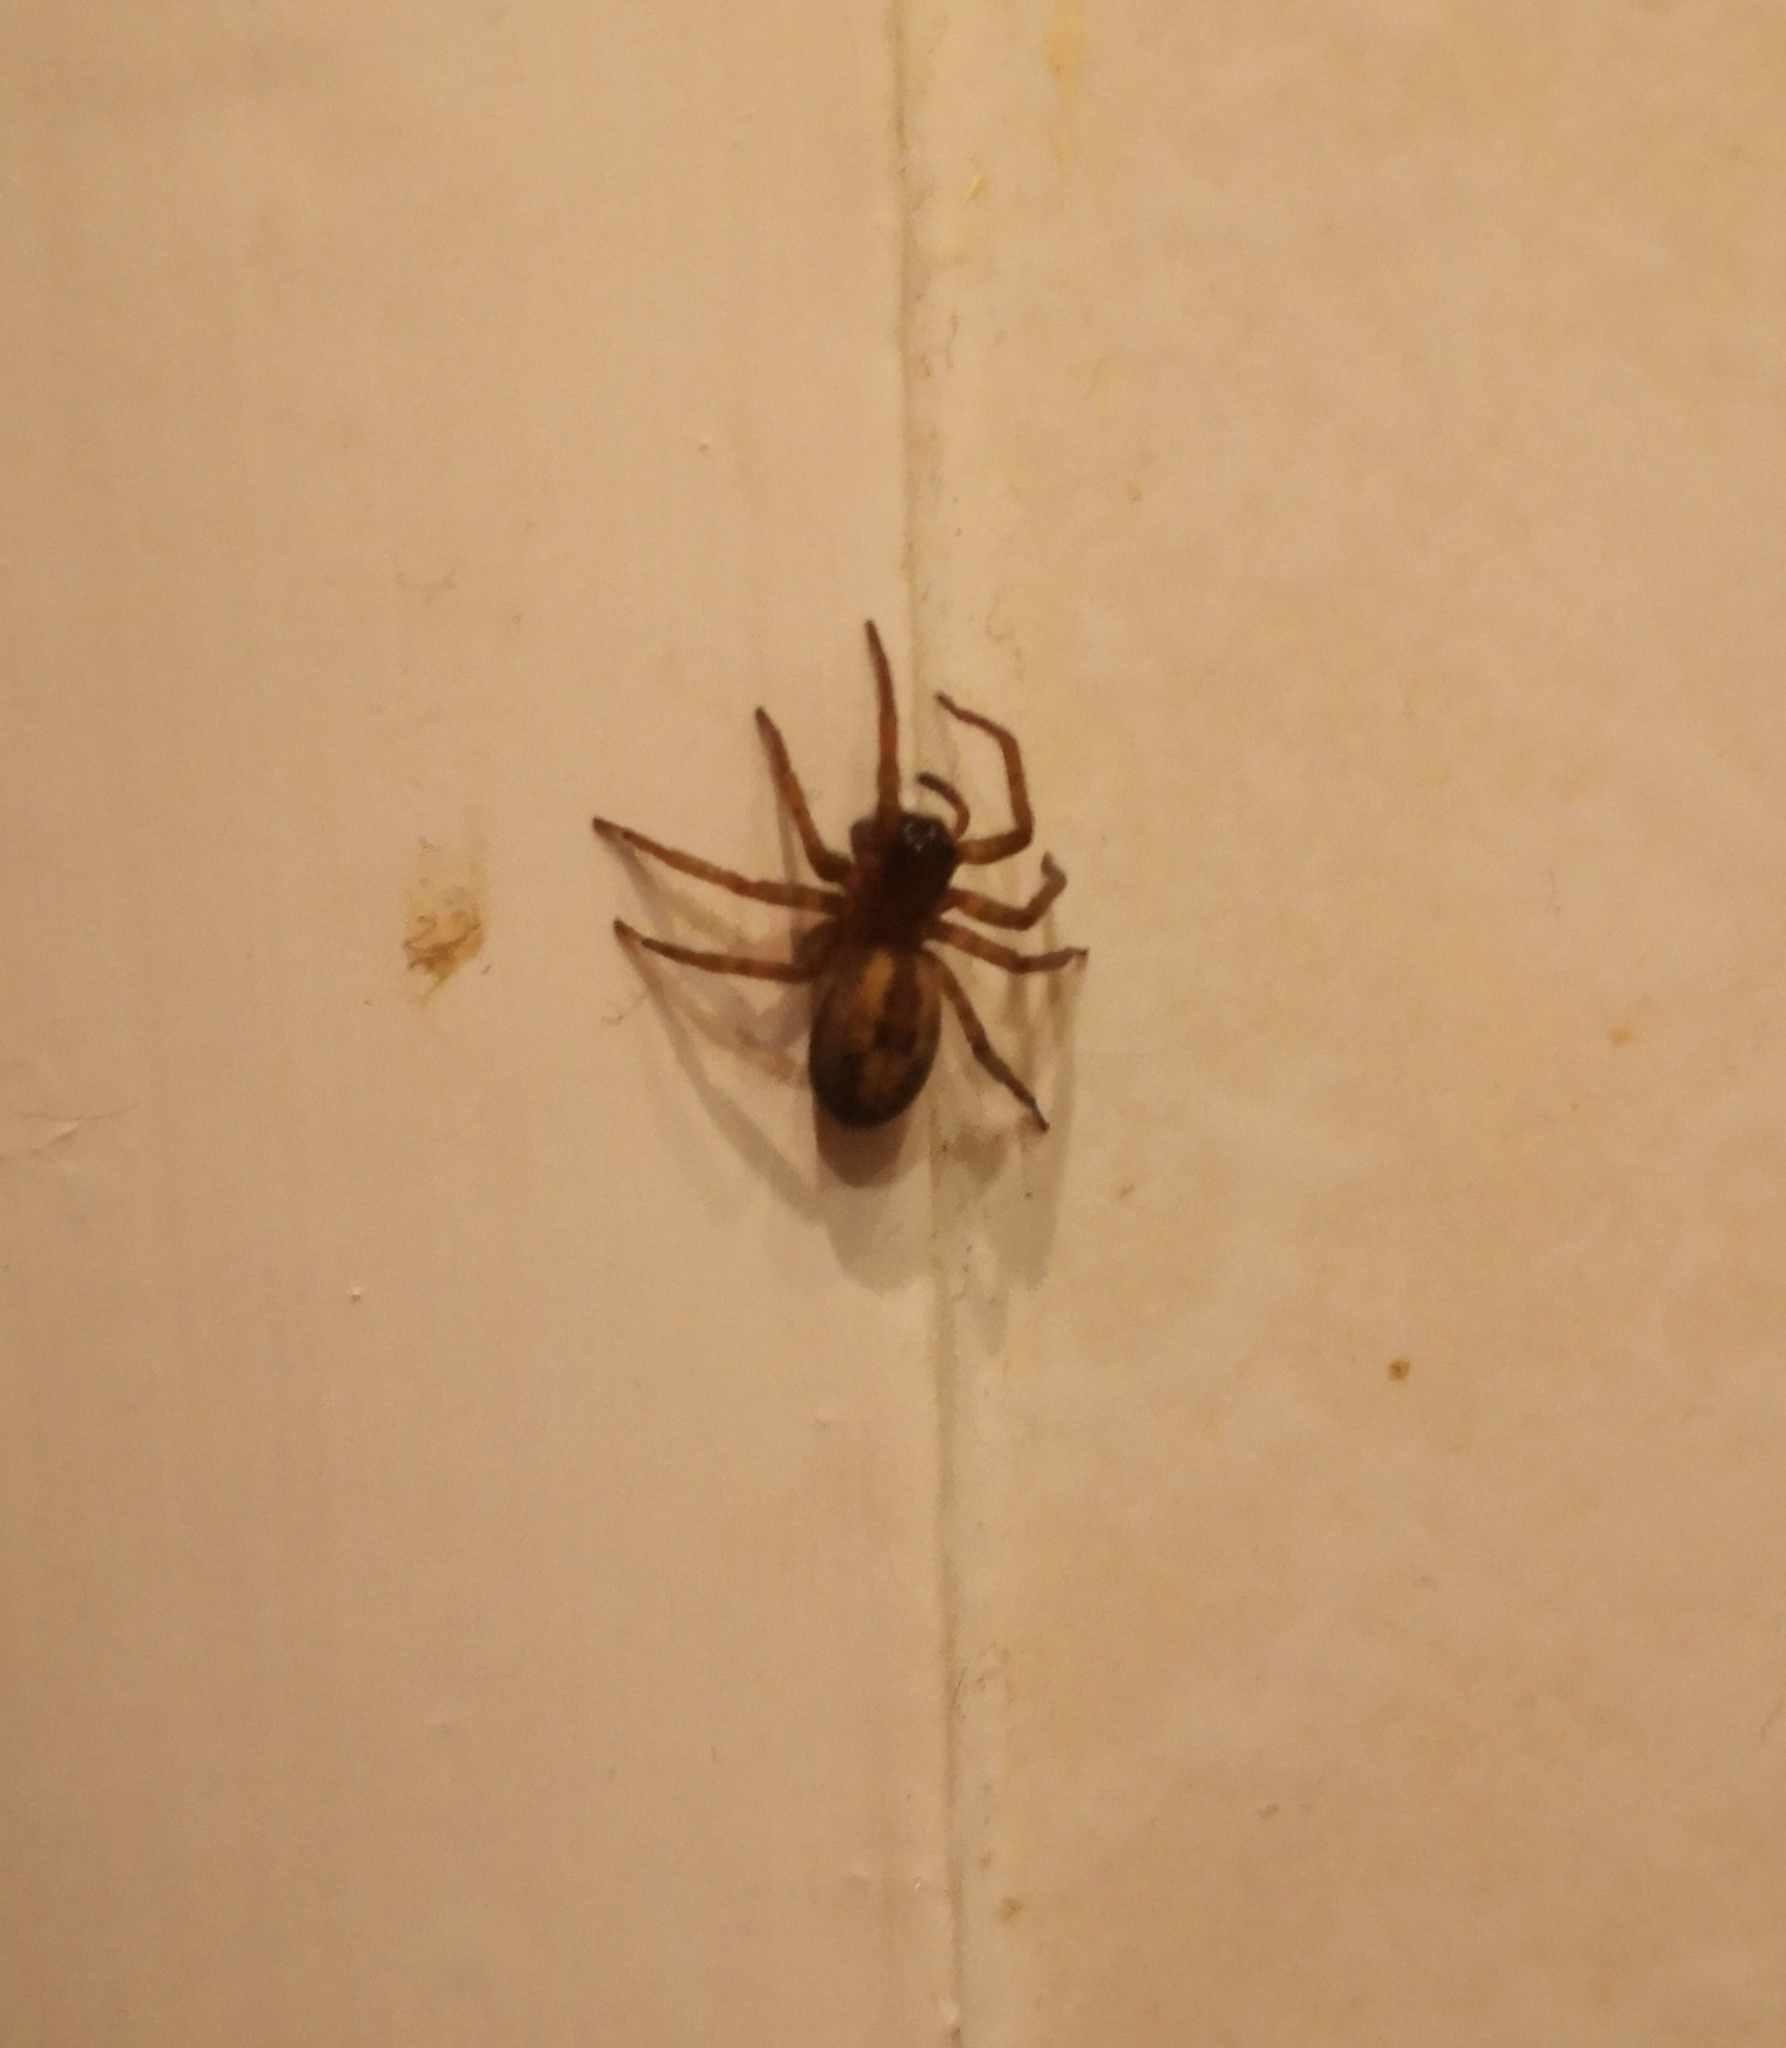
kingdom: Animalia
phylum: Arthropoda
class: Arachnida
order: Araneae
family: Amaurobiidae
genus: Amaurobius
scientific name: Amaurobius
